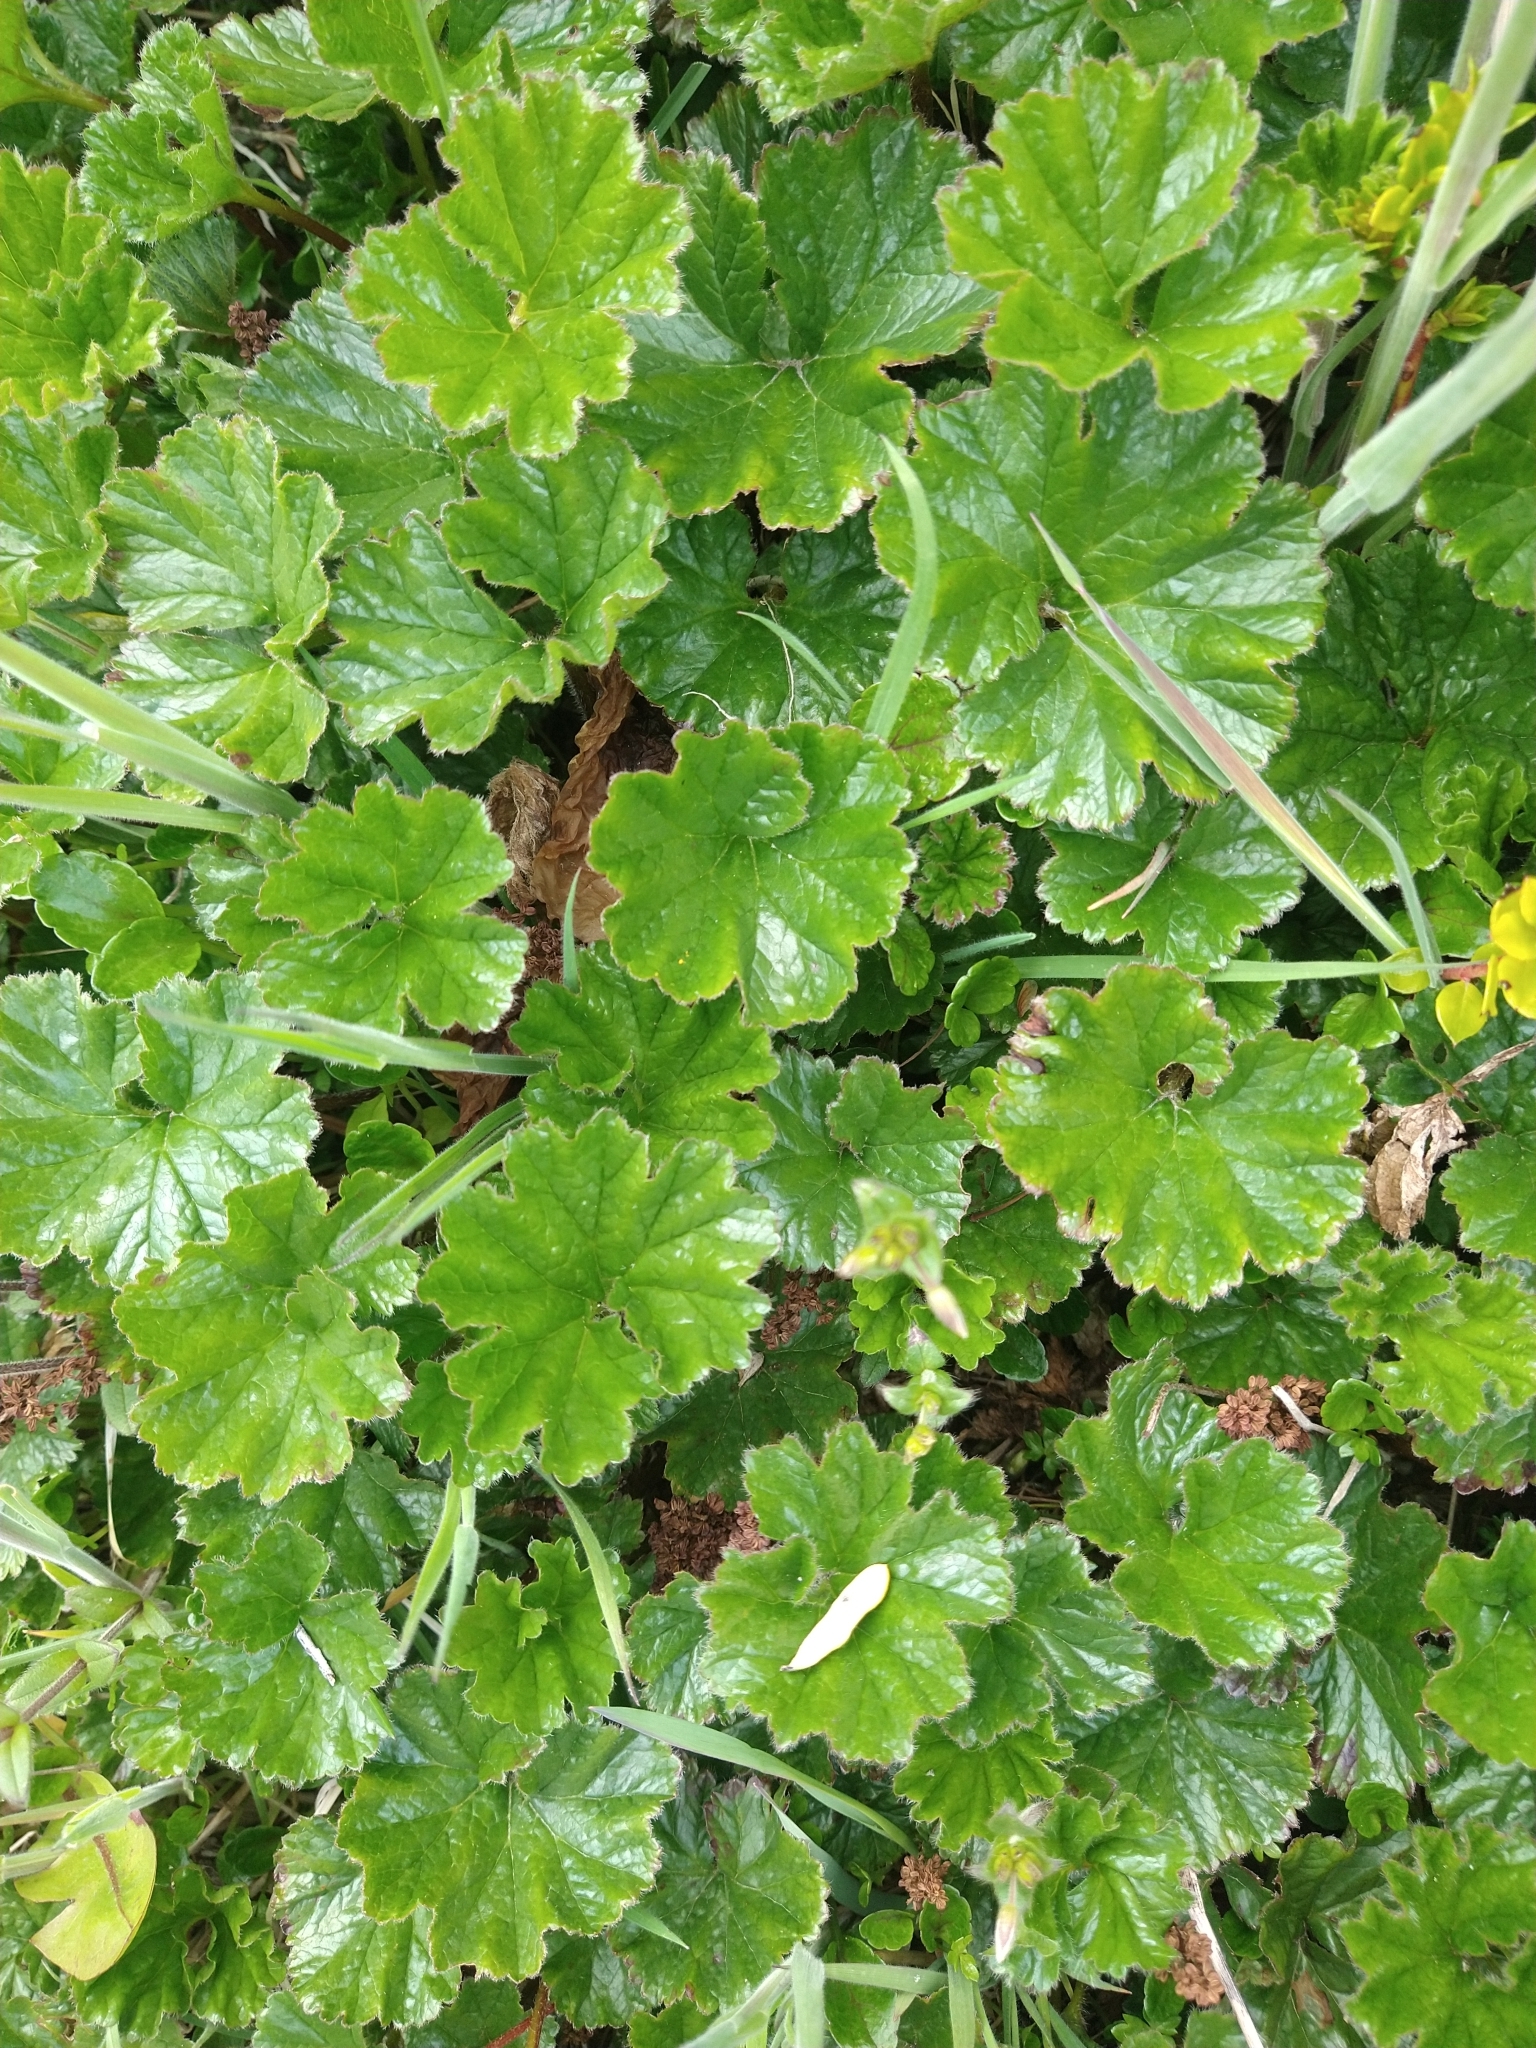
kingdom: Plantae
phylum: Tracheophyta
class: Magnoliopsida
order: Gunnerales
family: Gunneraceae
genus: Gunnera
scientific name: Gunnera magellanica
